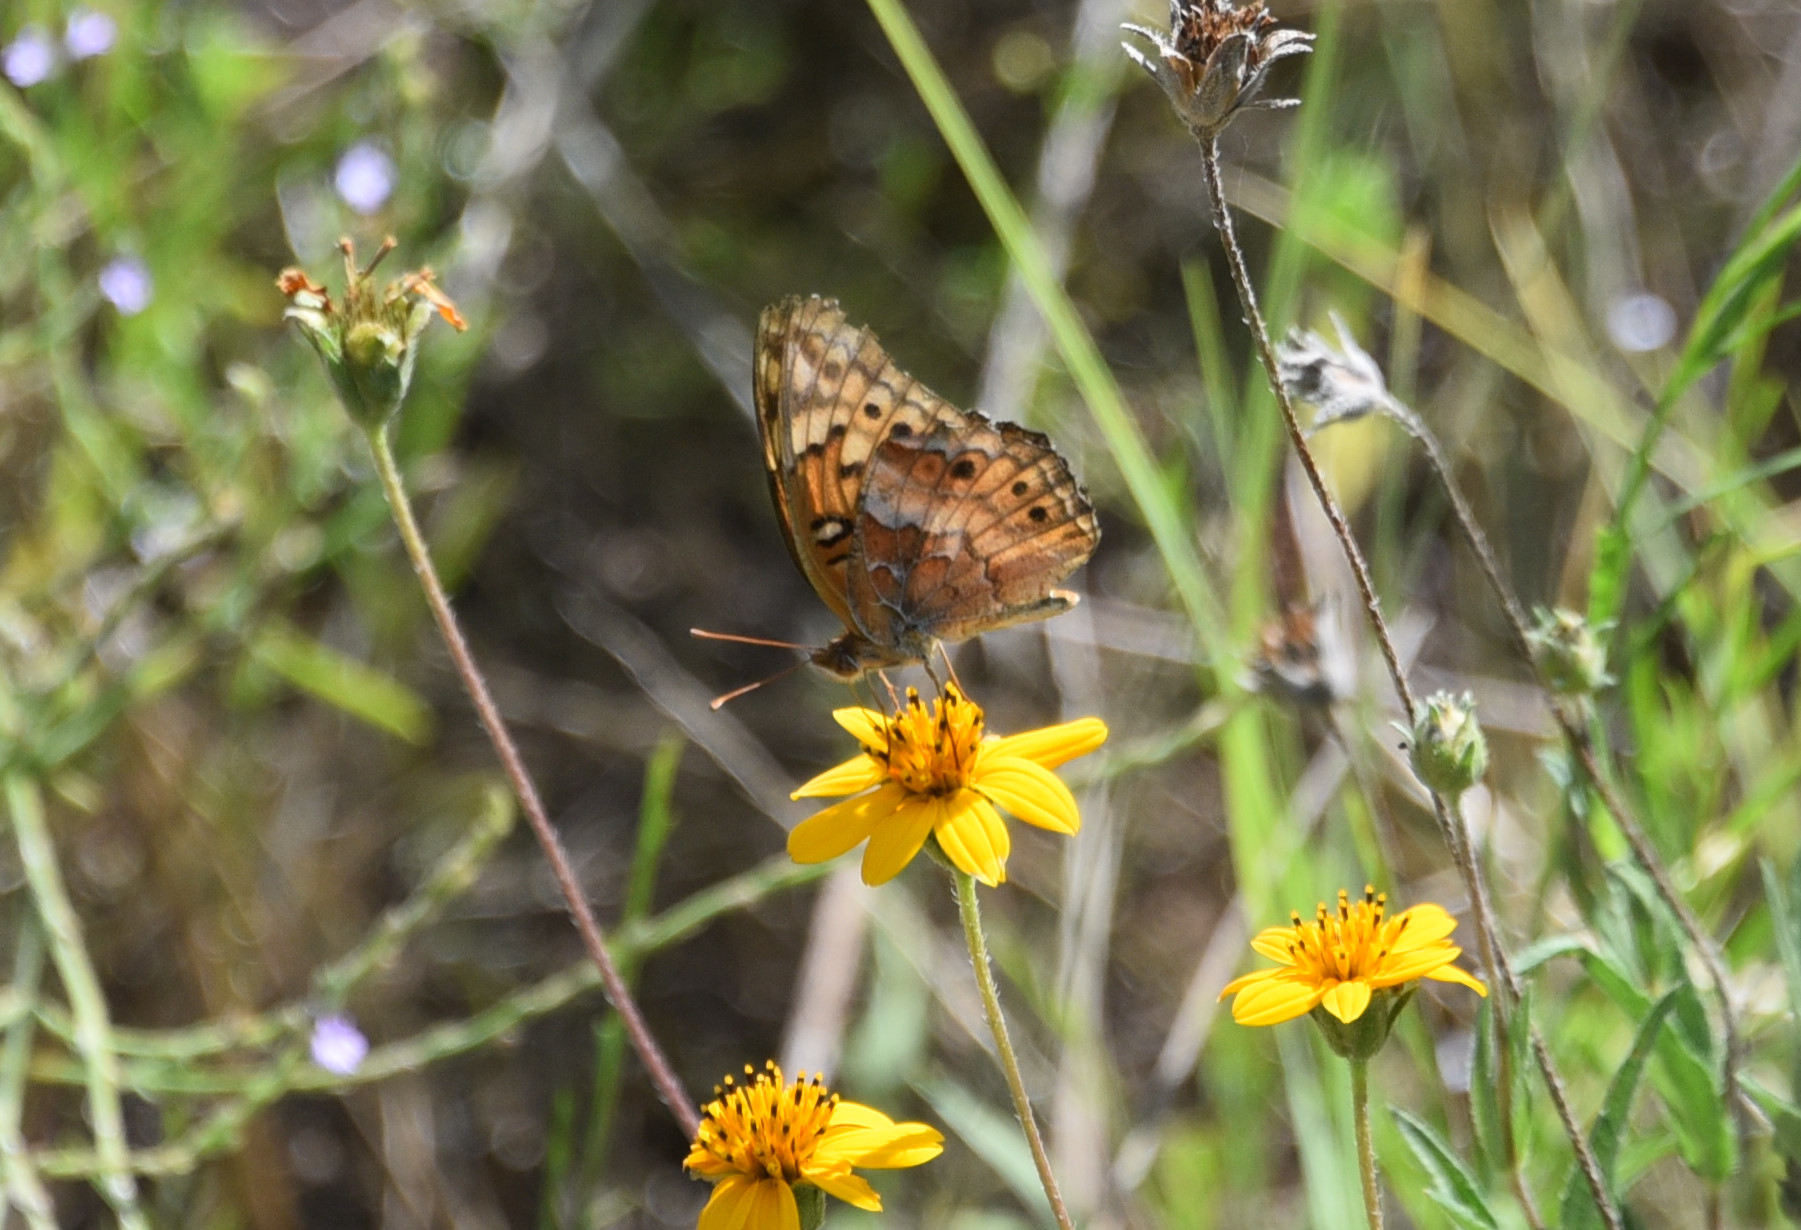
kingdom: Animalia
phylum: Arthropoda
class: Insecta
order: Lepidoptera
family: Nymphalidae
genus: Euptoieta
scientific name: Euptoieta claudia
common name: Variegated fritillary
